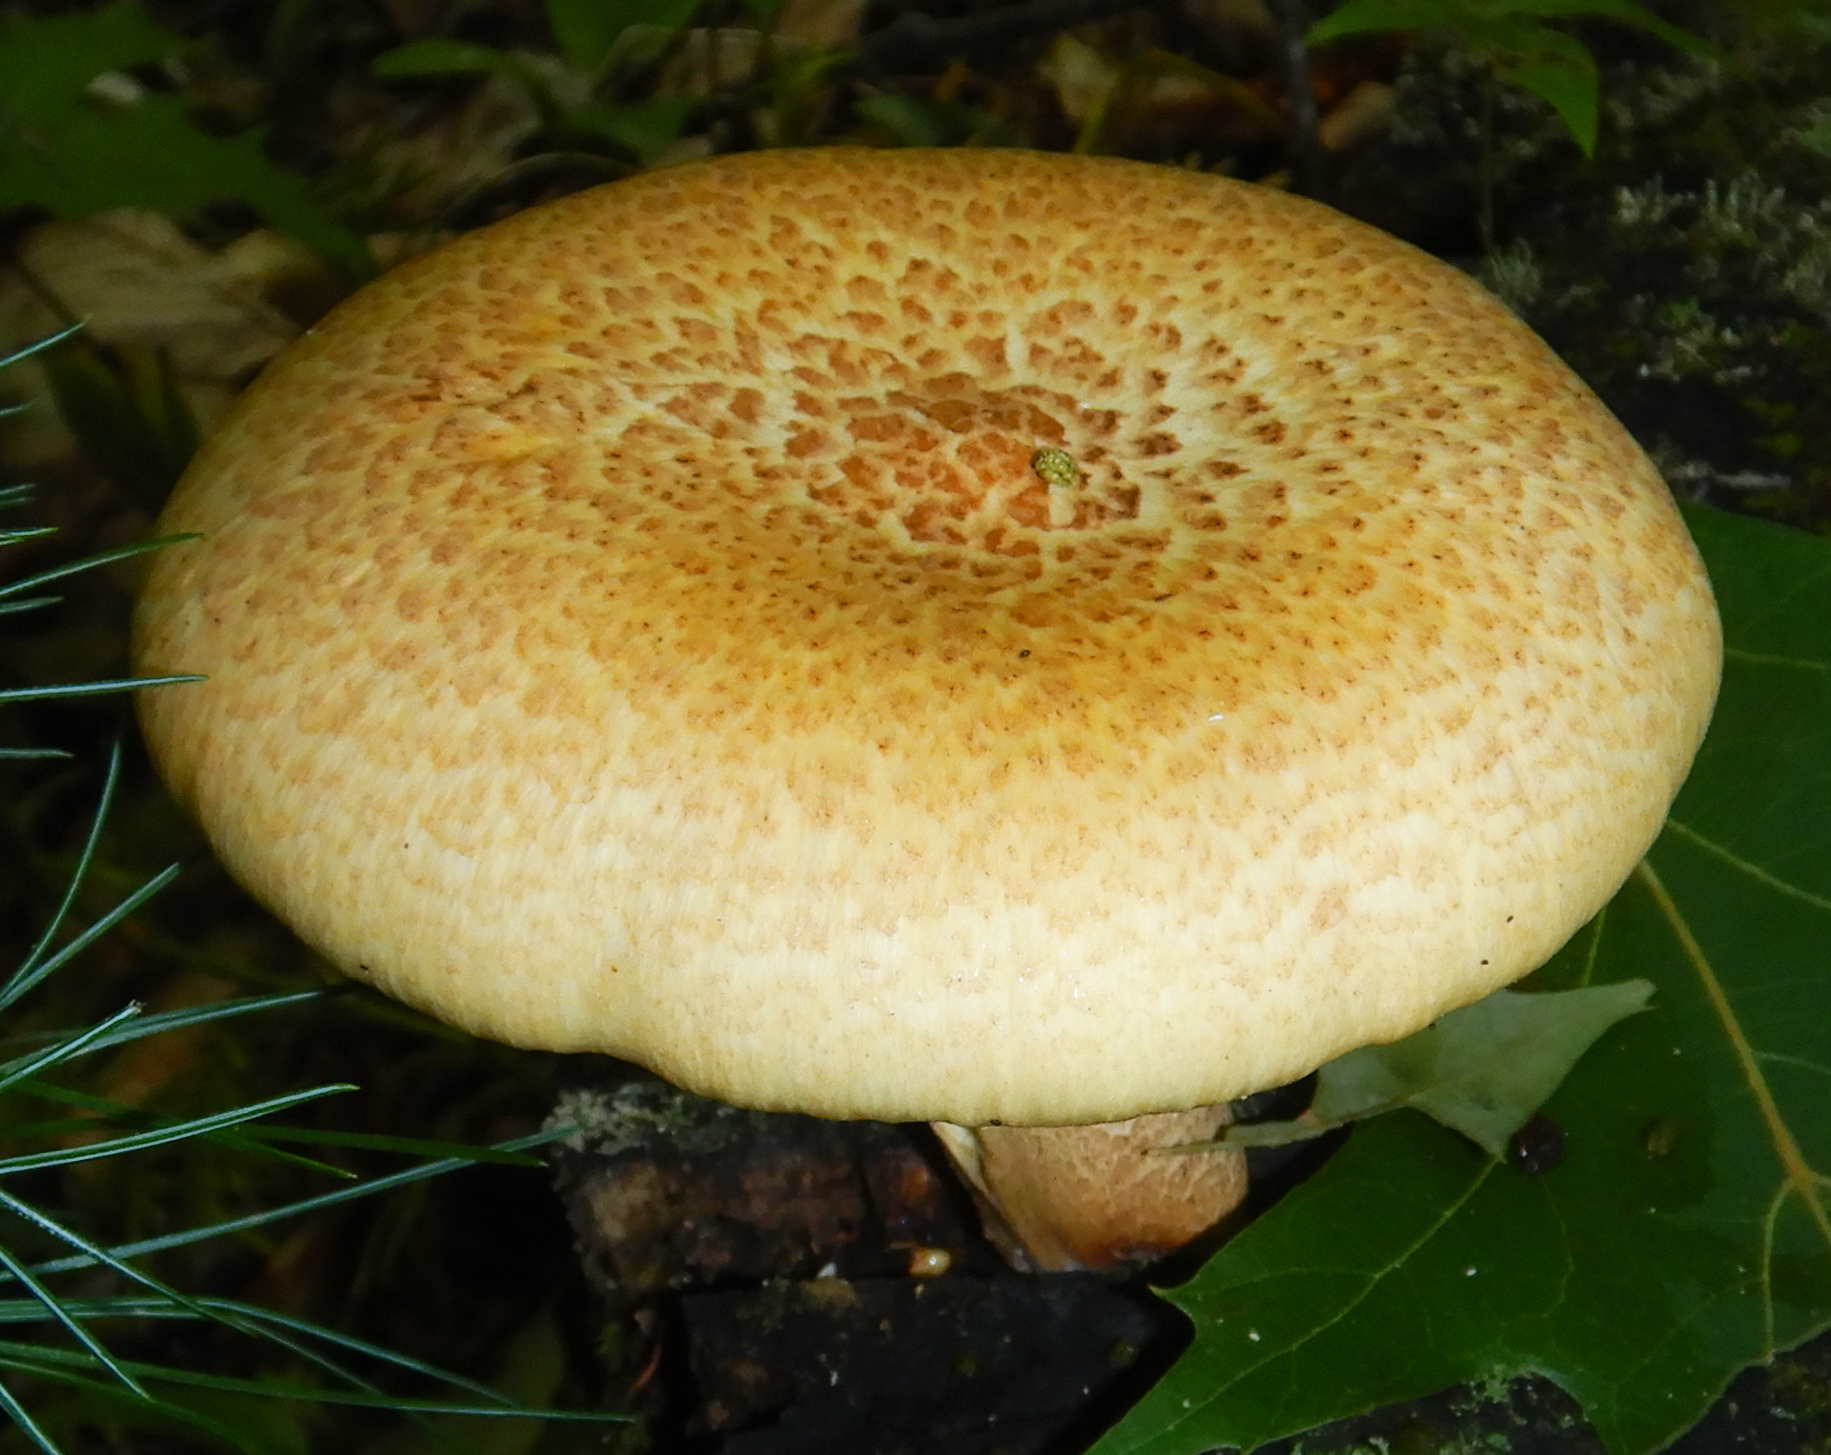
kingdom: Fungi
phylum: Basidiomycota
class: Agaricomycetes
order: Gloeophyllales
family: Gloeophyllaceae
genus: Neolentinus
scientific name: Neolentinus lepideus
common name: Scaly sawgill
